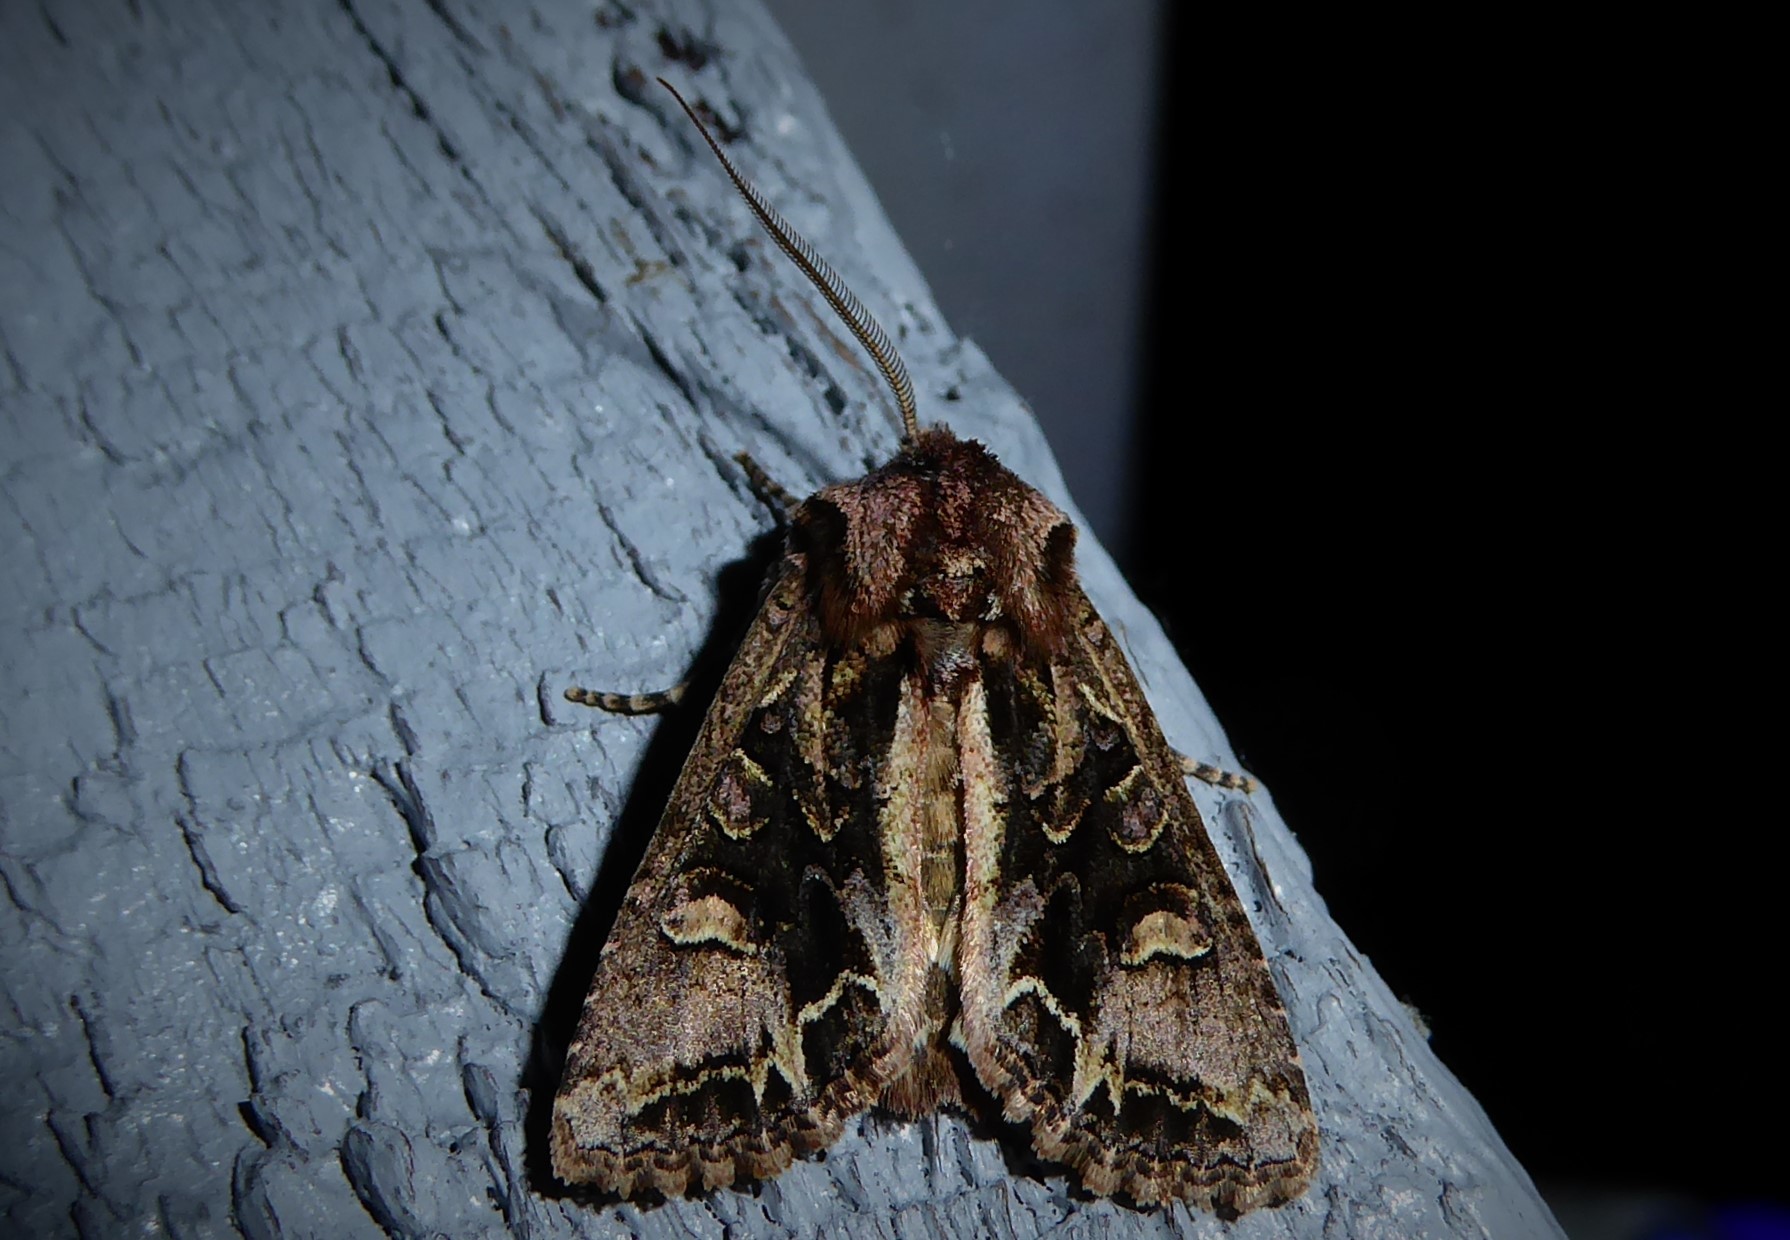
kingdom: Animalia
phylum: Arthropoda
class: Insecta
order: Lepidoptera
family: Noctuidae
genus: Ichneutica
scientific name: Ichneutica insignis
